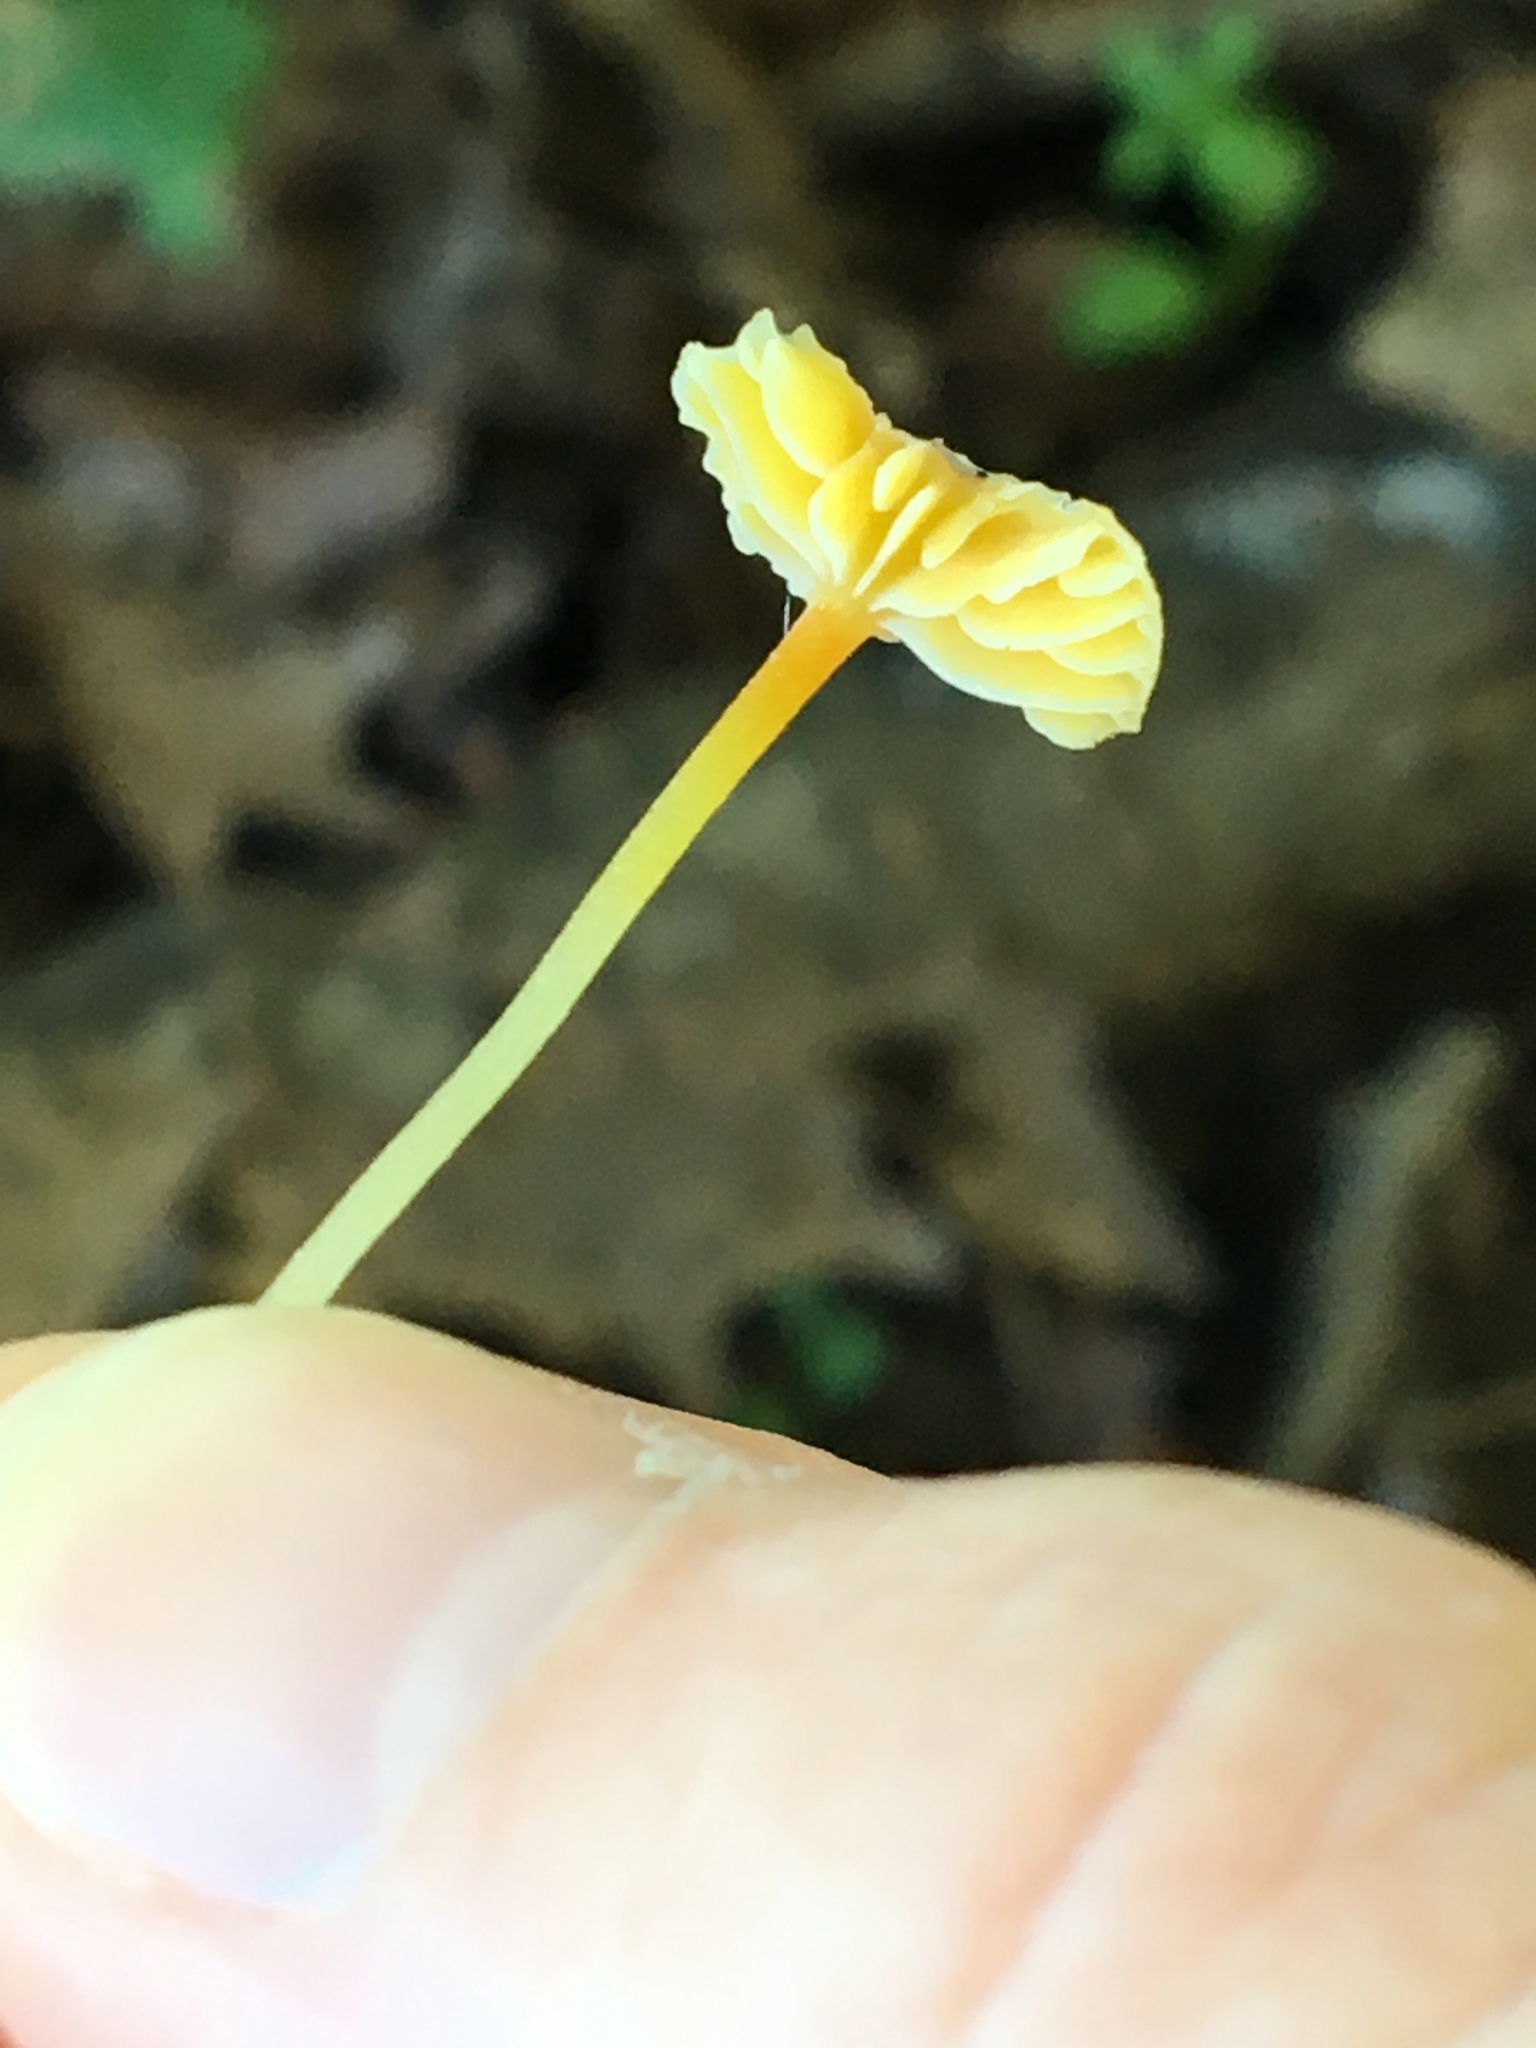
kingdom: Fungi
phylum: Basidiomycota
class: Agaricomycetes
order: Agaricales
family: Mycenaceae
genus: Mycena
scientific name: Mycena crocea
